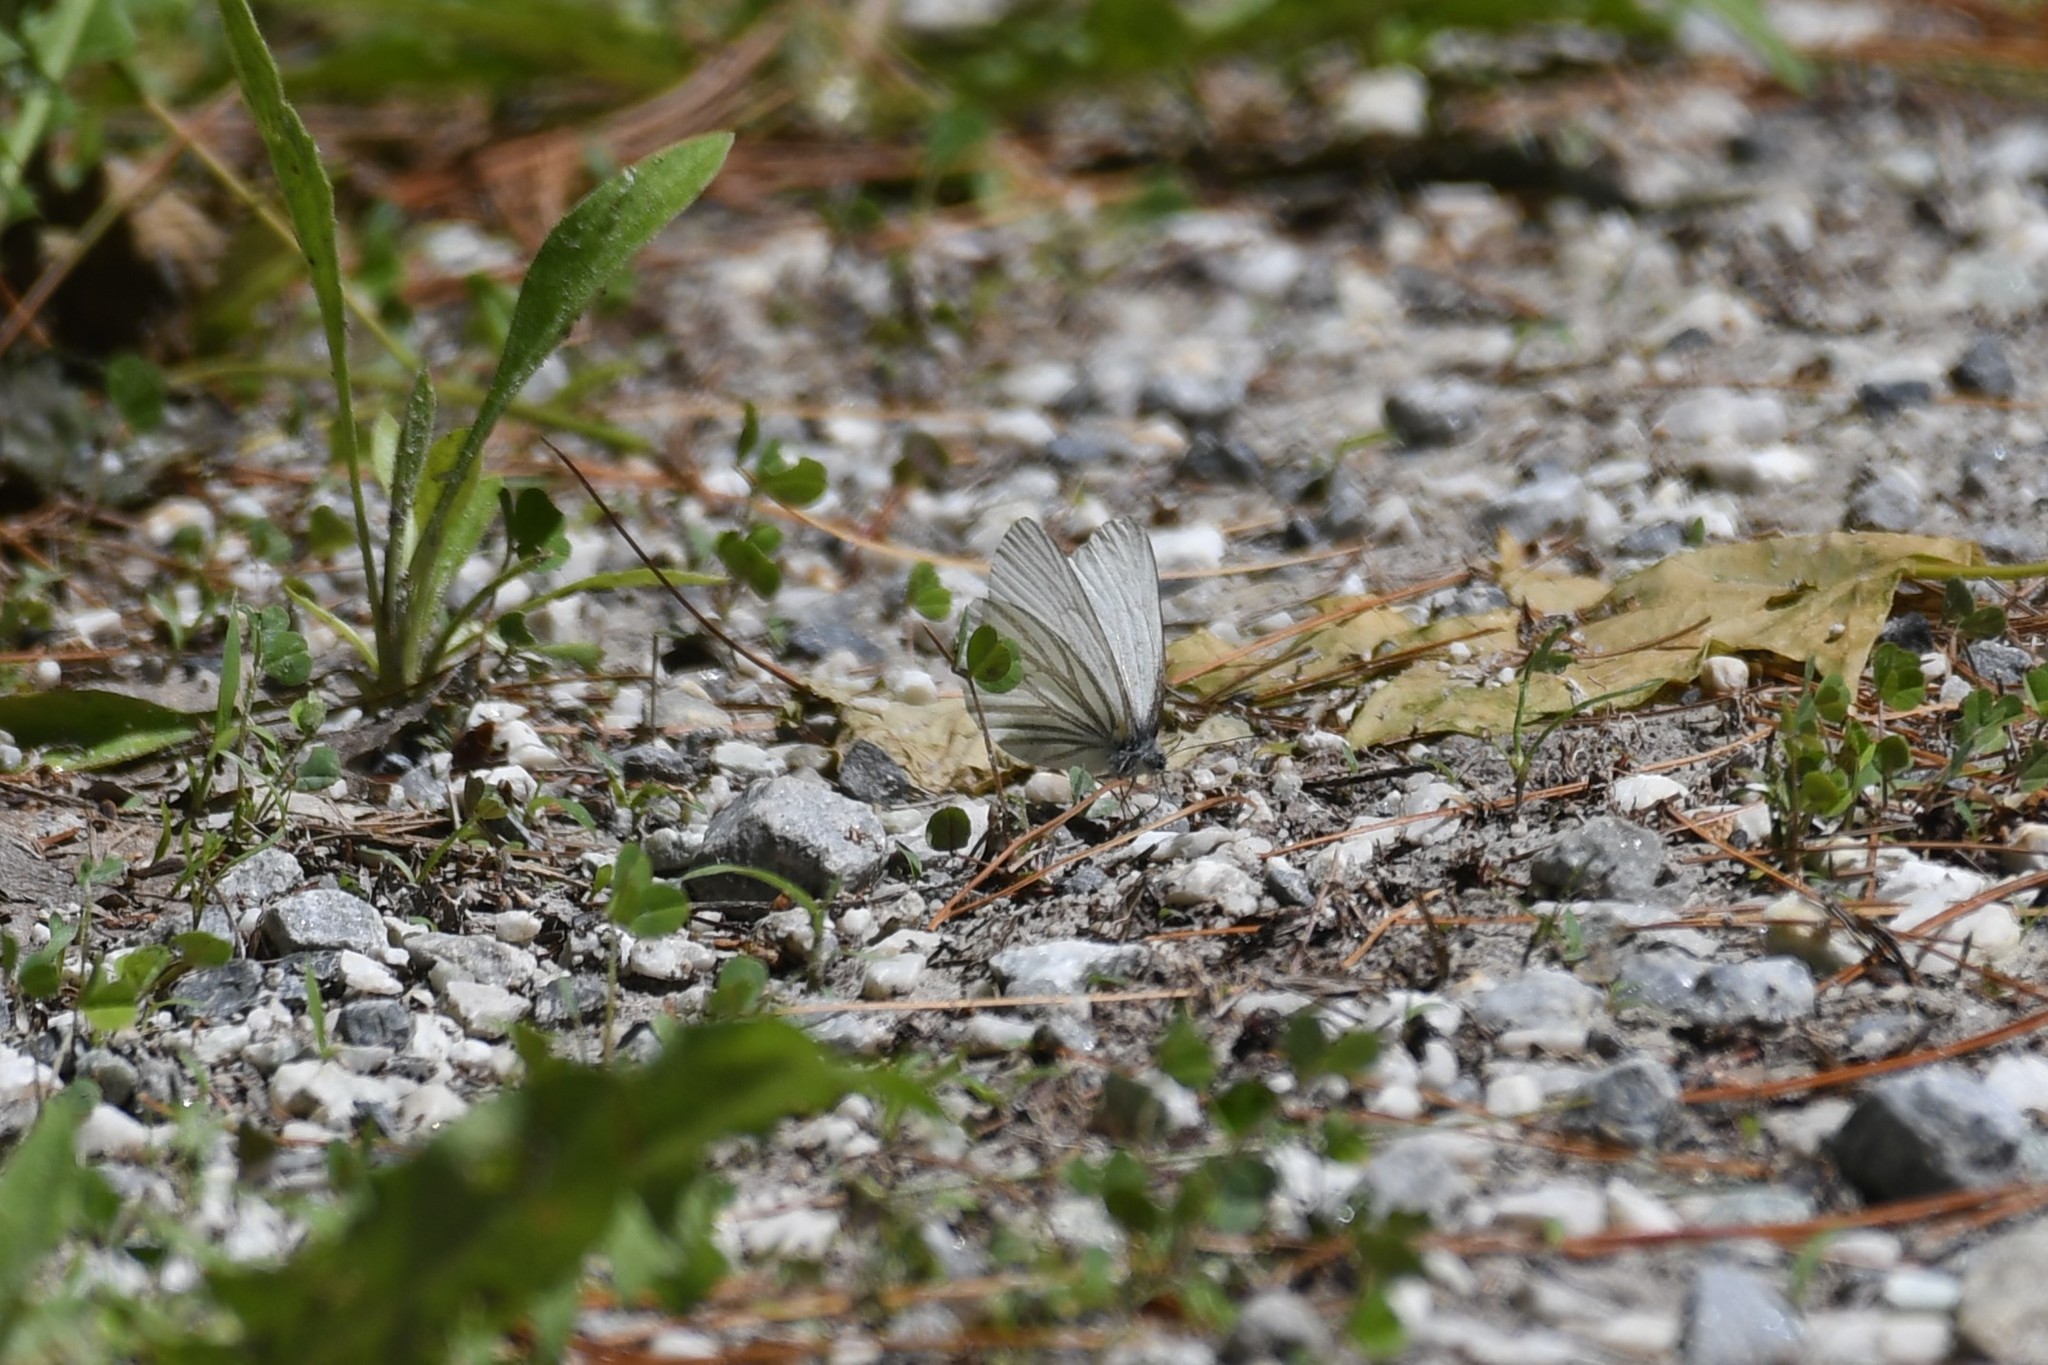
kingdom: Animalia
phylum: Arthropoda
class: Insecta
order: Lepidoptera
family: Pieridae
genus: Pieris
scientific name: Pieris oleracea
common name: Mustard white
